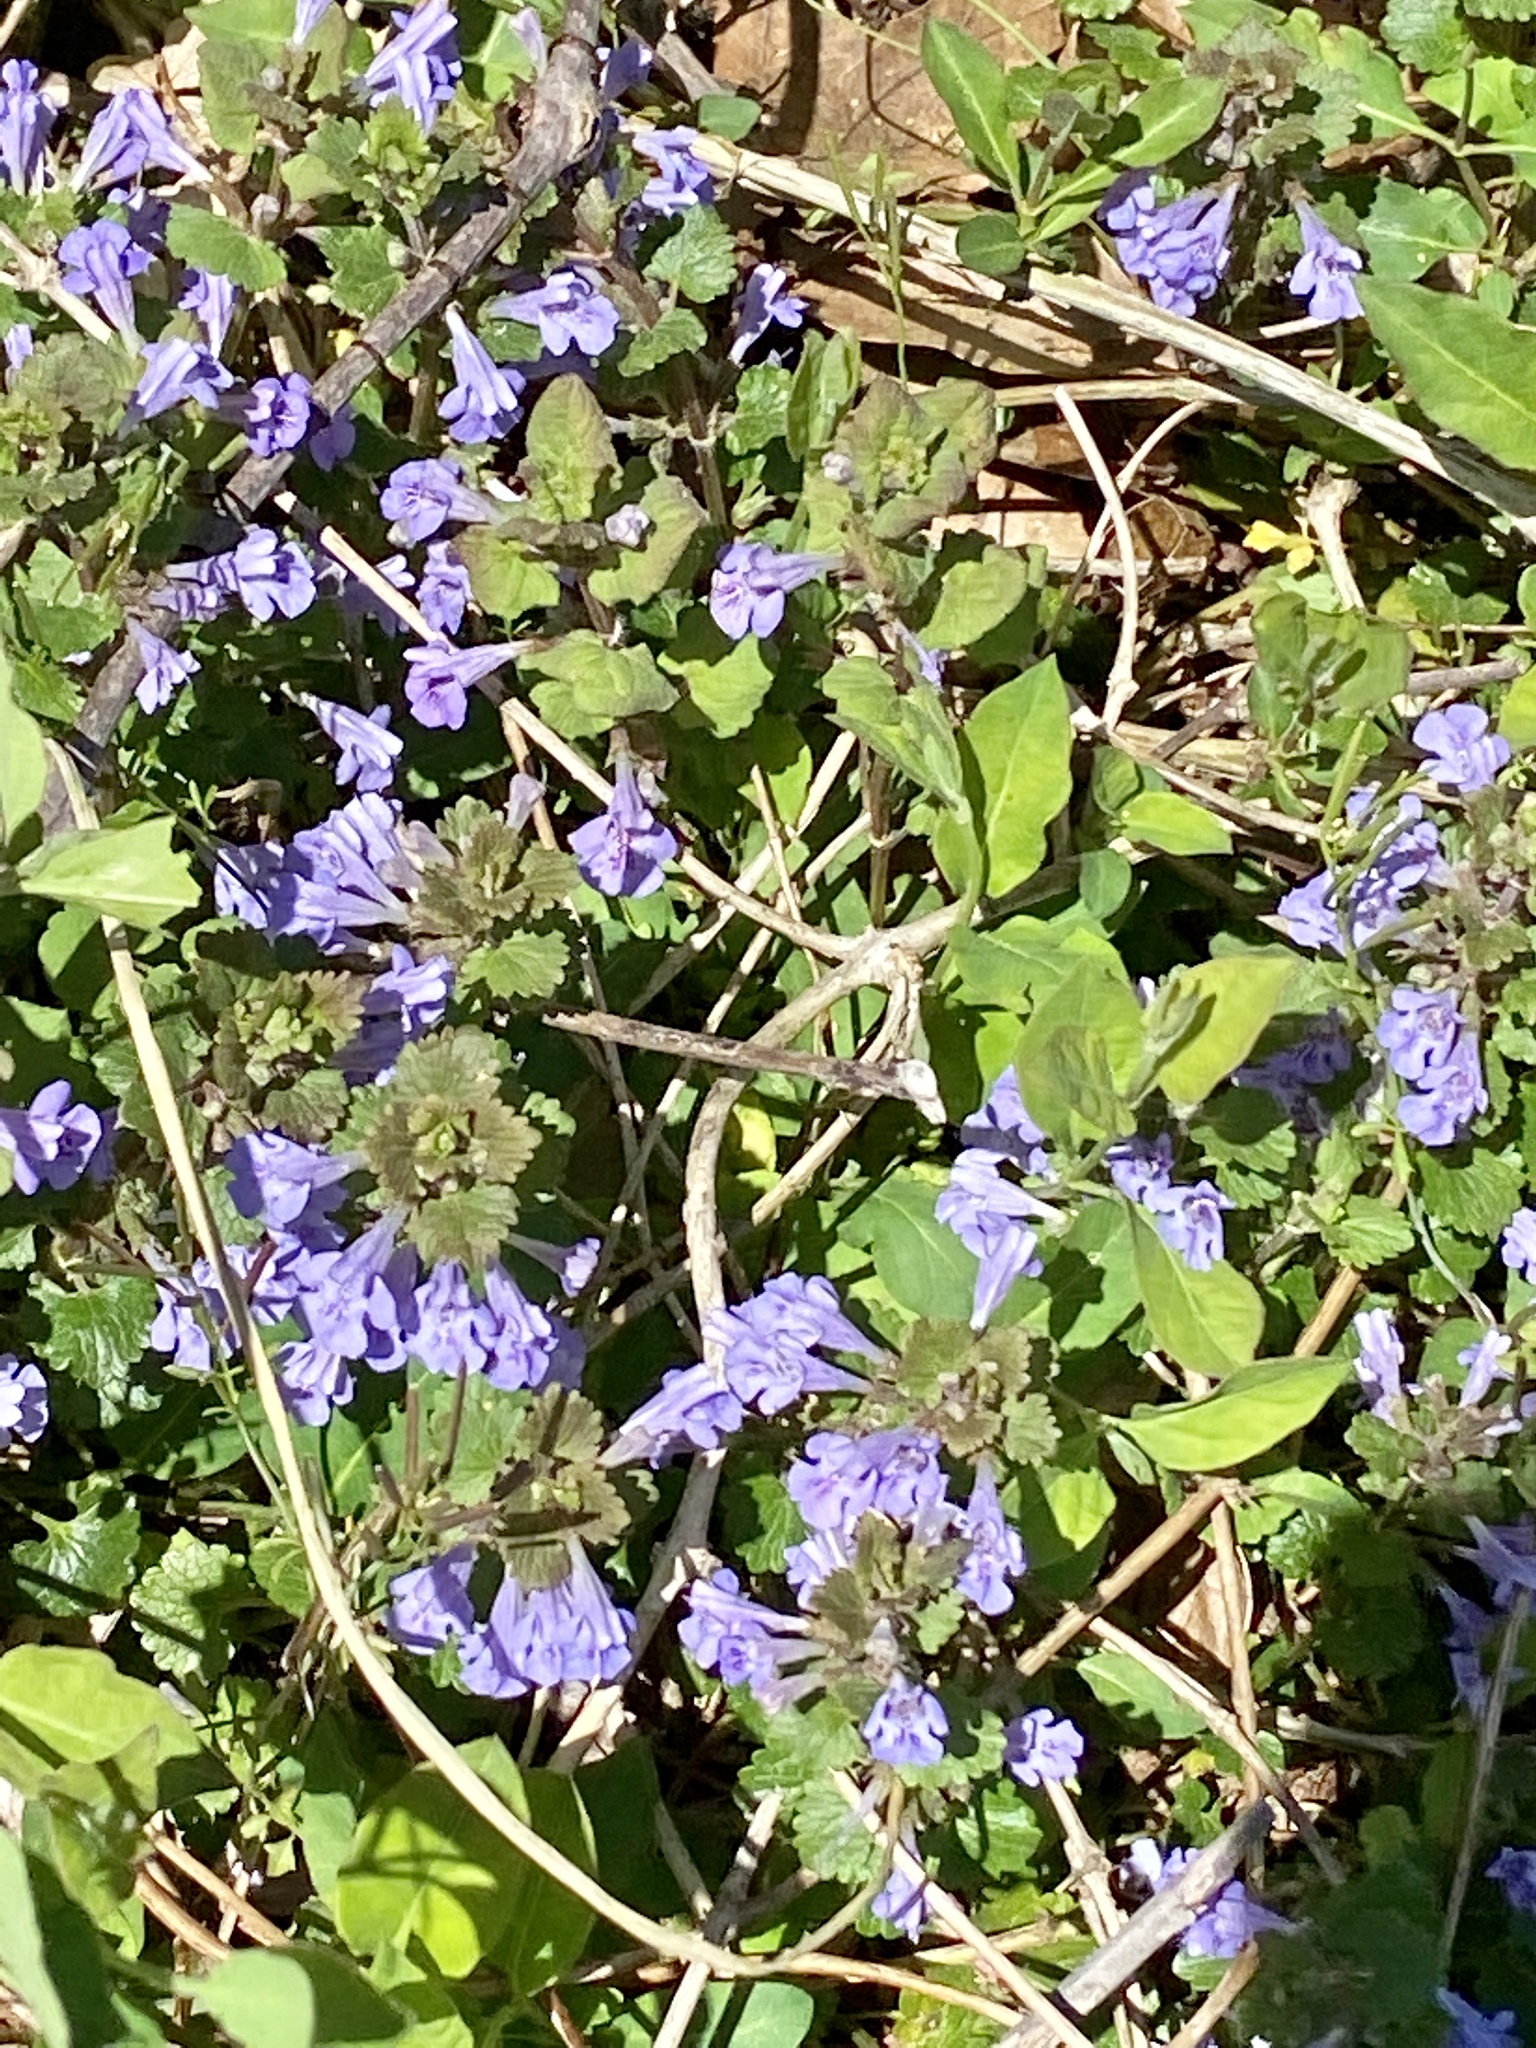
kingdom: Plantae
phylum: Tracheophyta
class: Magnoliopsida
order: Lamiales
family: Lamiaceae
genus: Glechoma
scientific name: Glechoma hederacea
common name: Ground ivy
